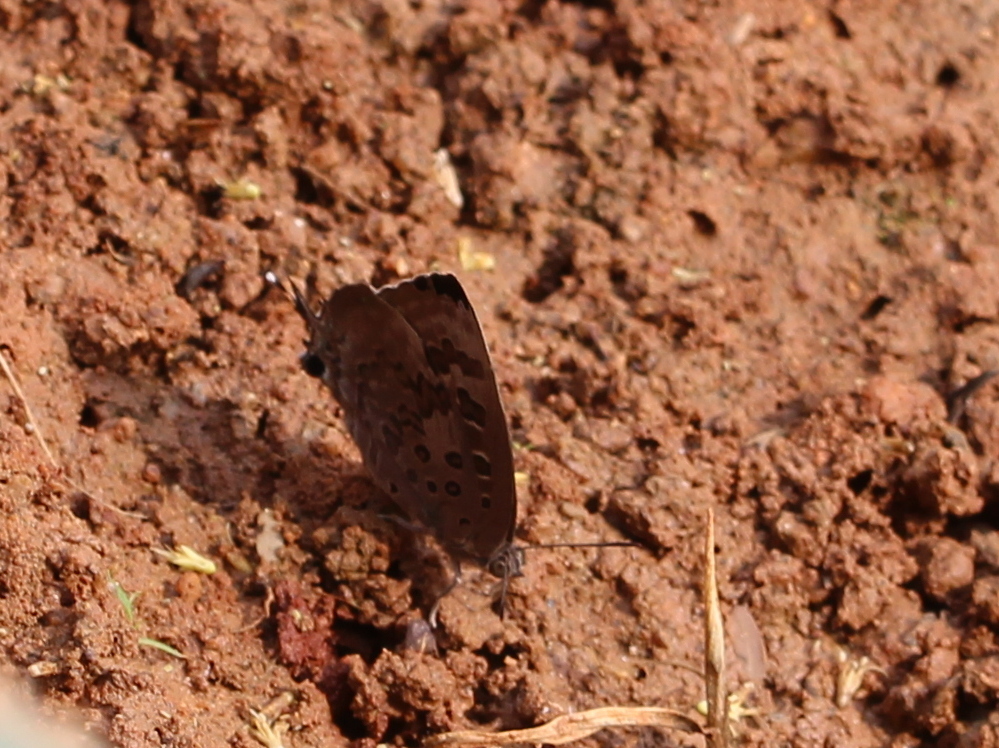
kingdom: Animalia
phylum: Arthropoda
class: Insecta
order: Lepidoptera
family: Lycaenidae
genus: Arhopala
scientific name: Arhopala amantes
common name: Large oakblue
